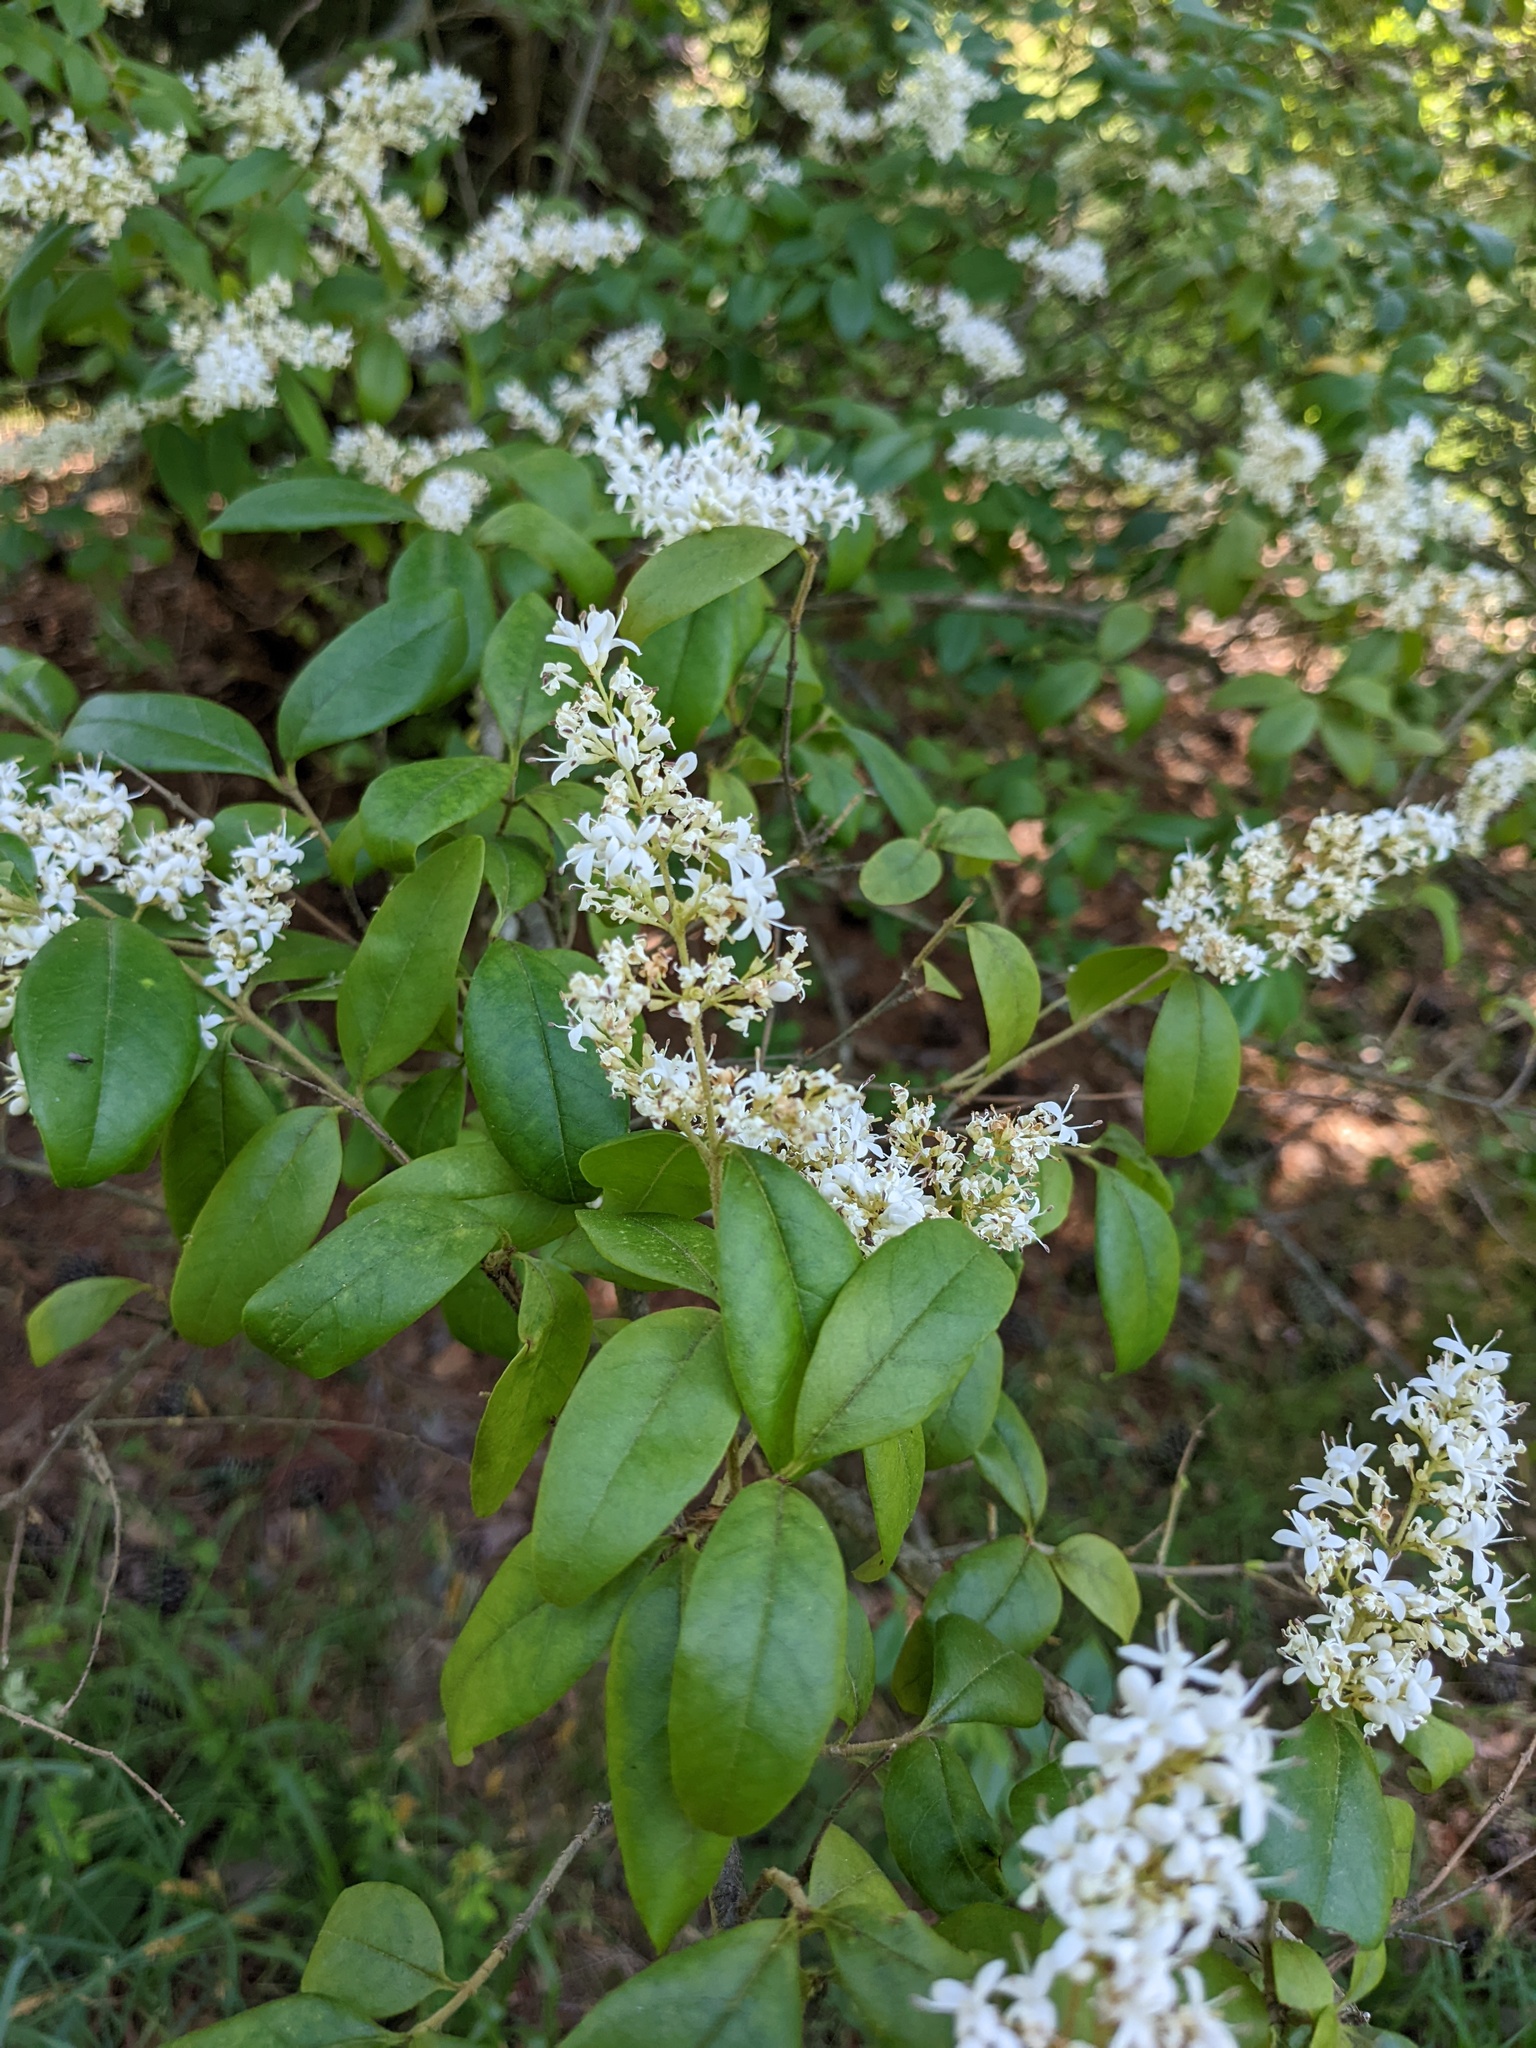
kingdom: Plantae
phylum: Tracheophyta
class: Magnoliopsida
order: Lamiales
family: Oleaceae
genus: Ligustrum
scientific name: Ligustrum sinense
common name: Chinese privet
